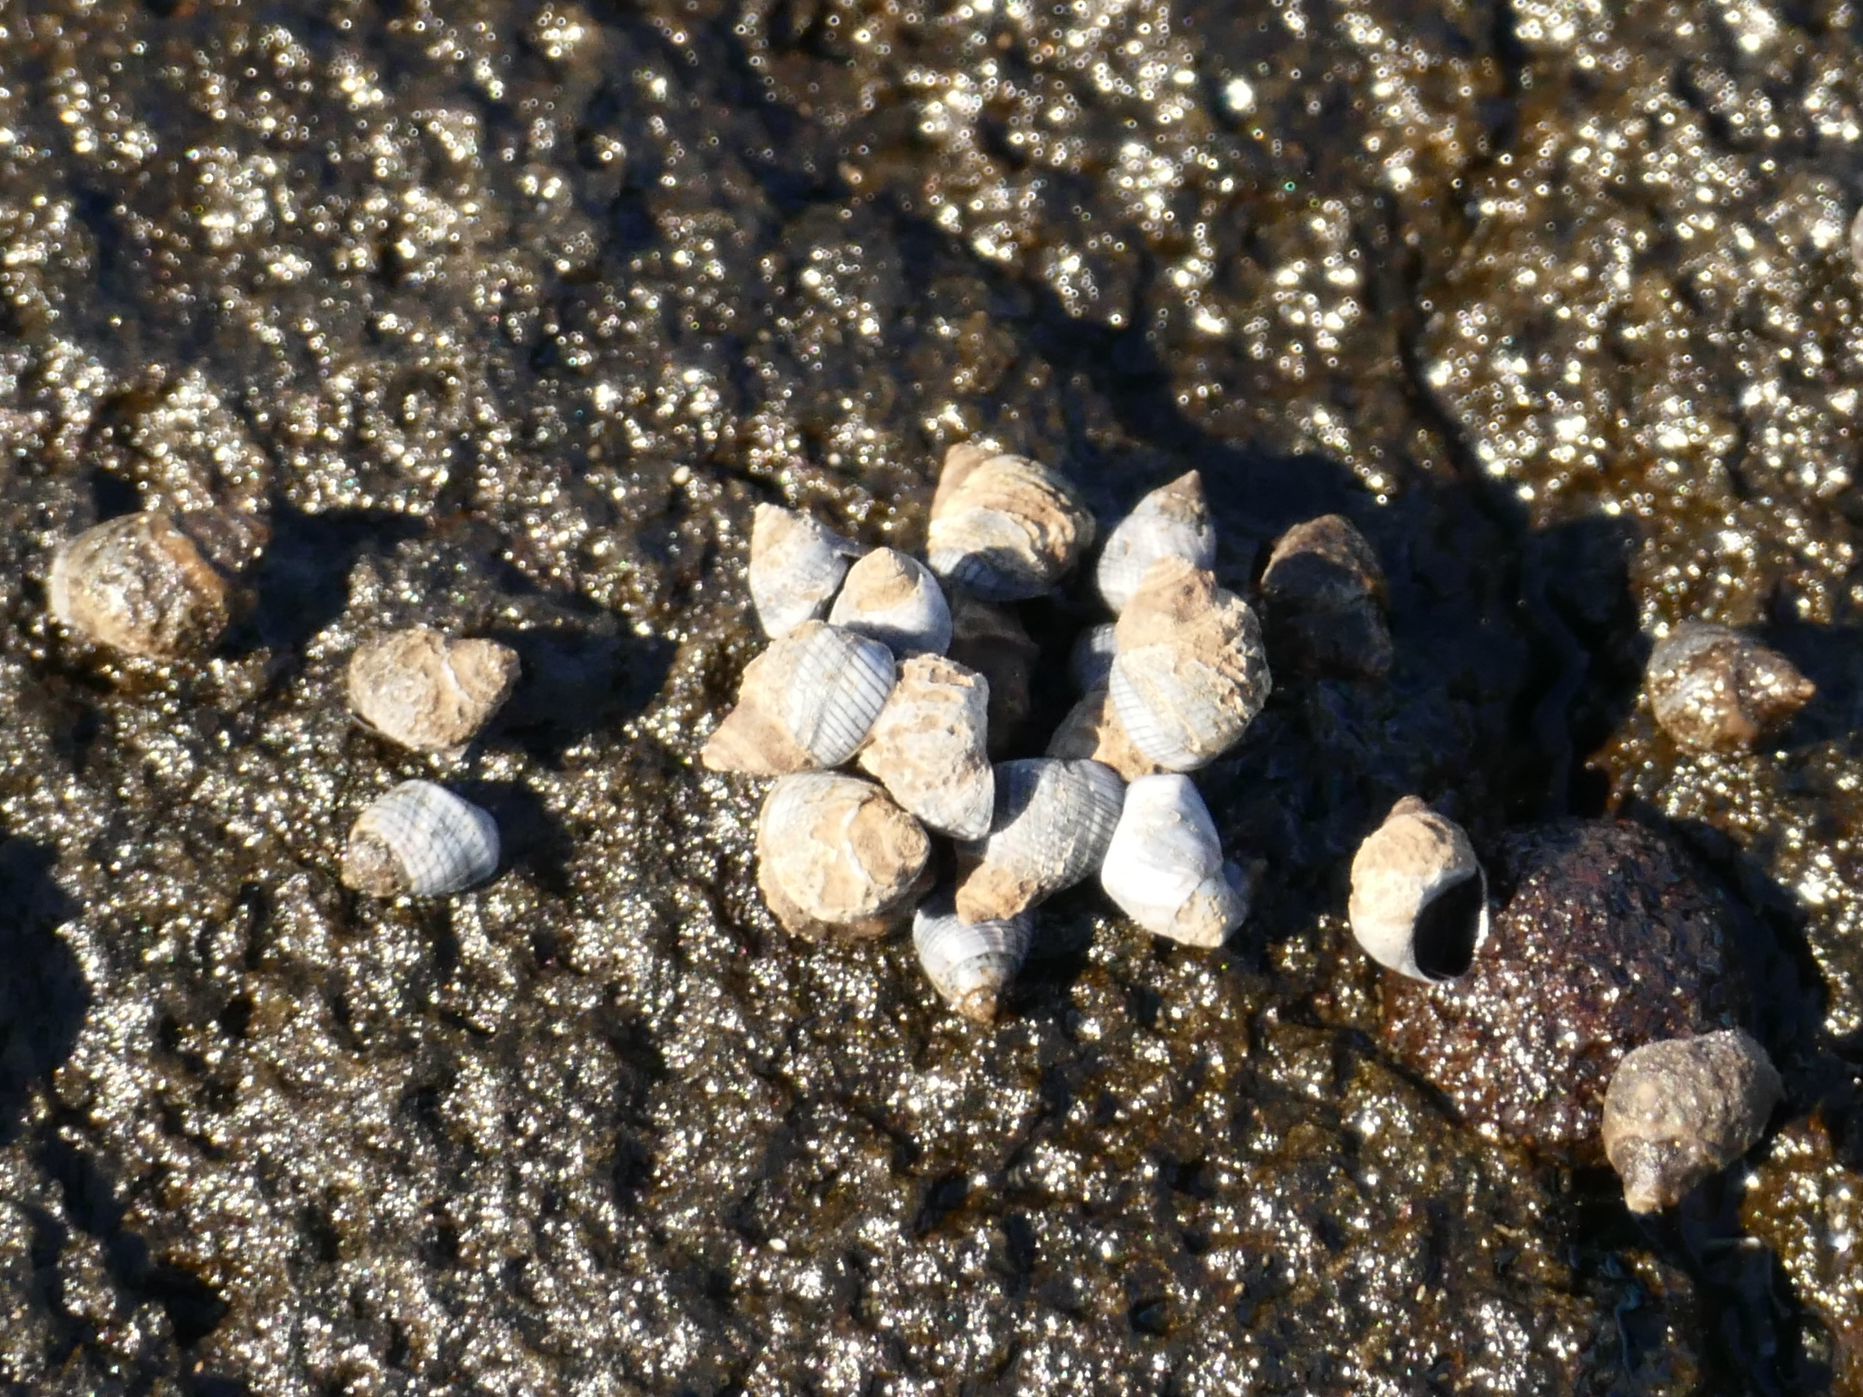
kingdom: Animalia
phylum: Mollusca
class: Gastropoda
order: Littorinimorpha
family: Littorinidae
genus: Austrolittorina
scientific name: Austrolittorina unifasciata
